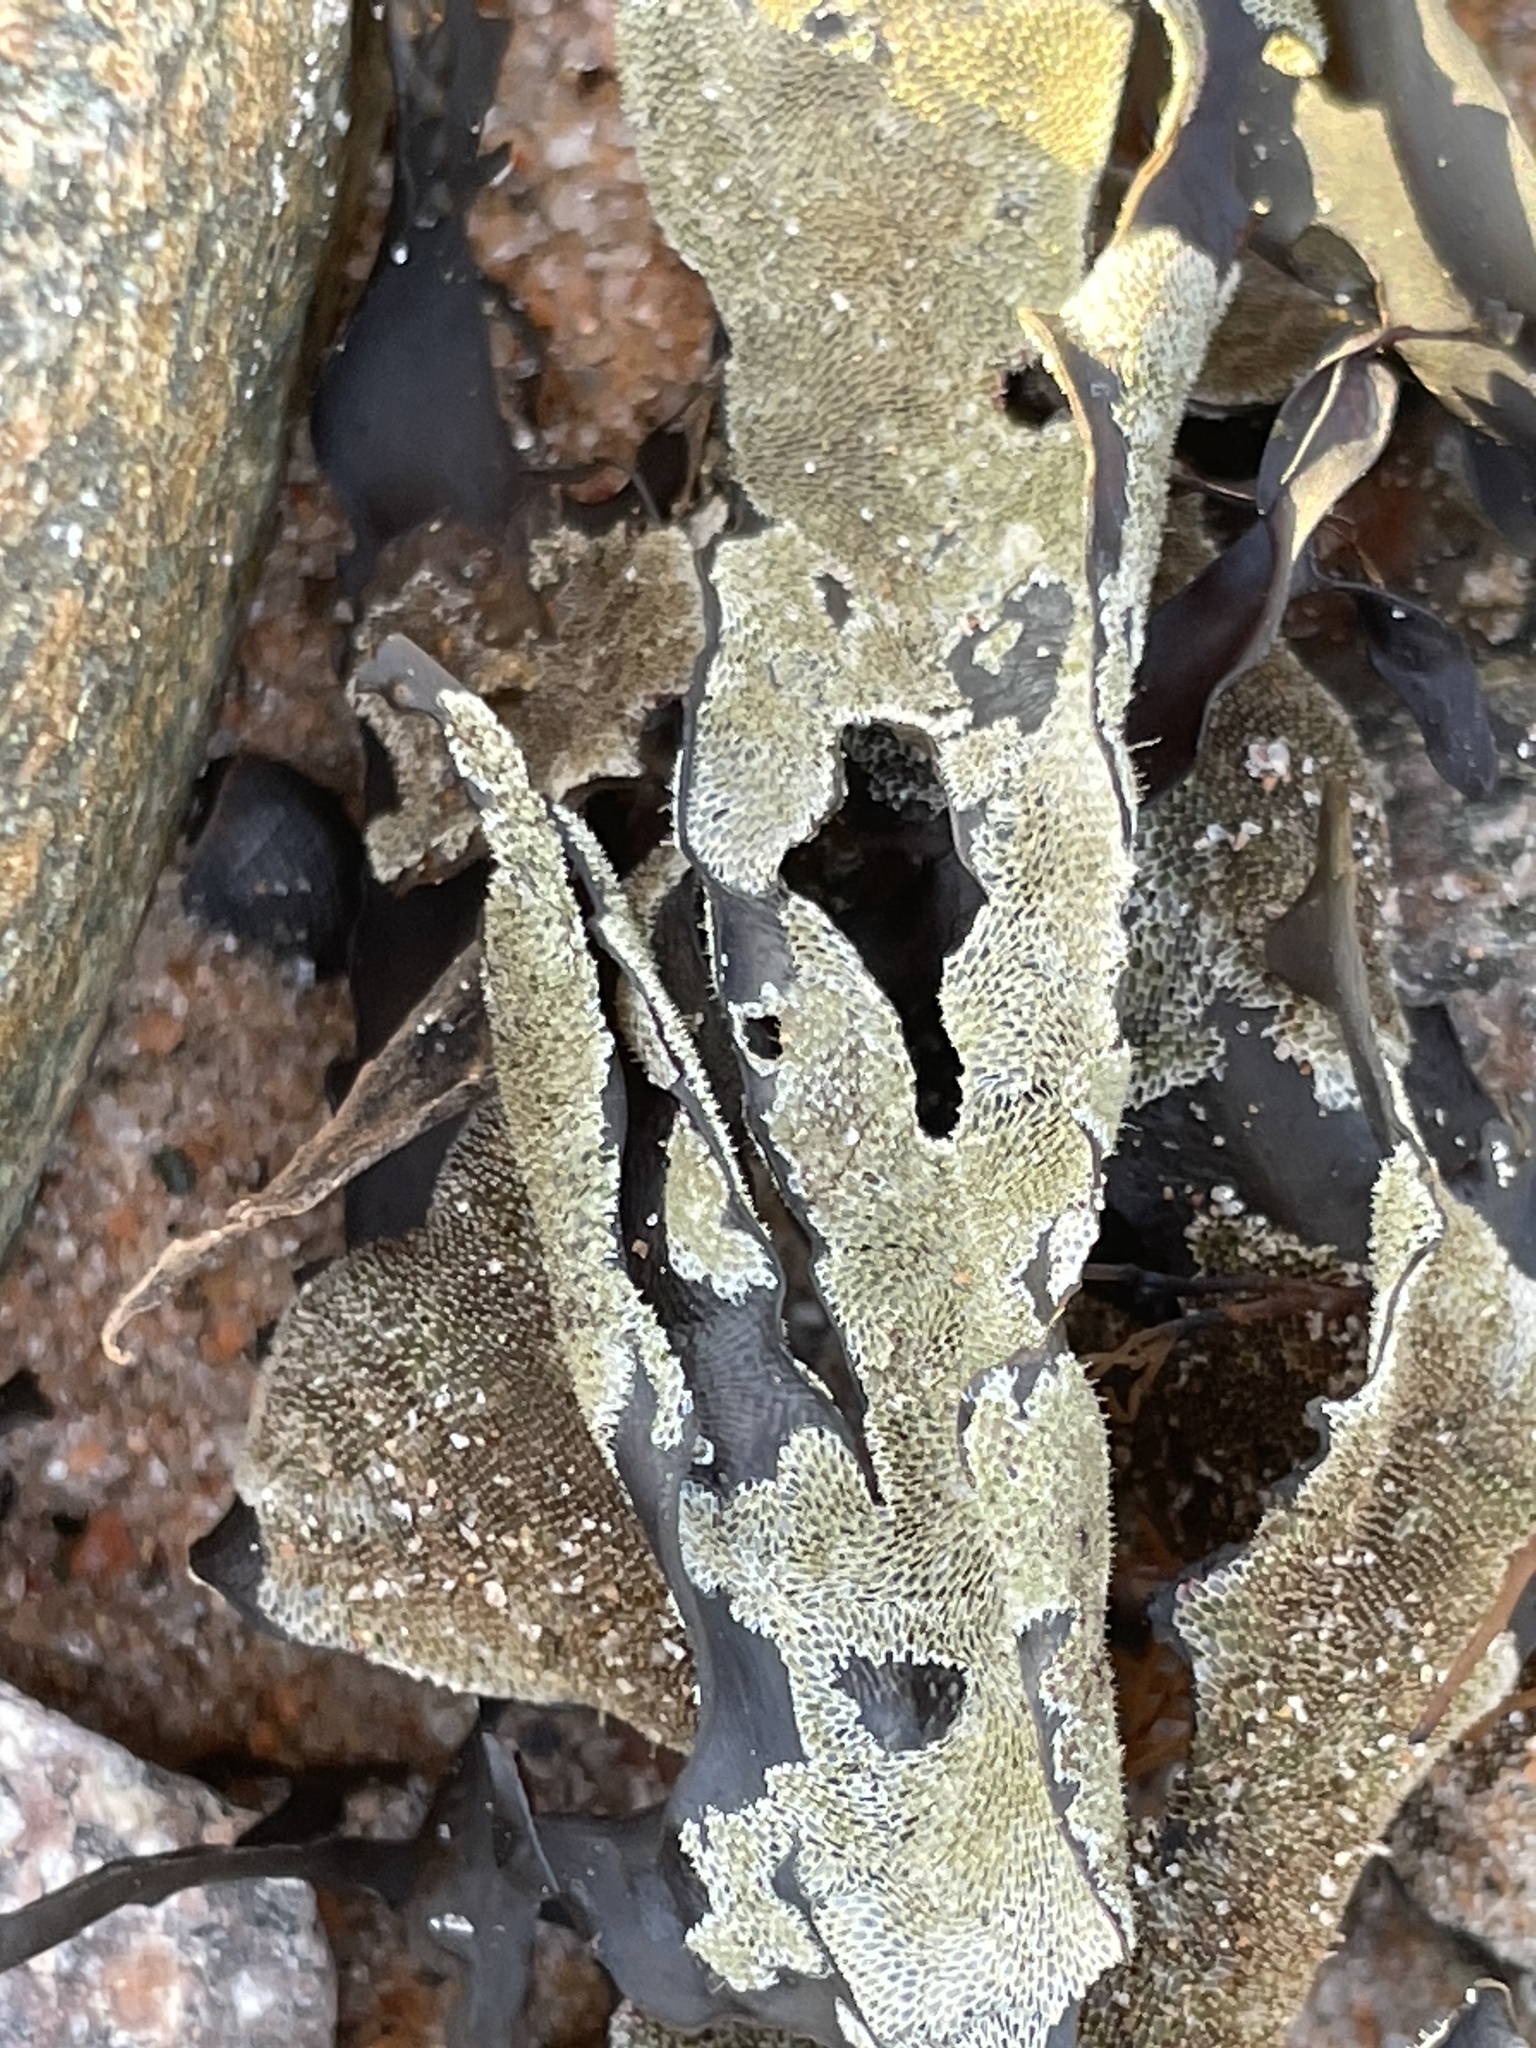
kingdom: Animalia
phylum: Bryozoa
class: Gymnolaemata
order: Cheilostomatida
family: Membraniporidae
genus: Membranipora
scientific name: Membranipora membranacea
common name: Sea mat
